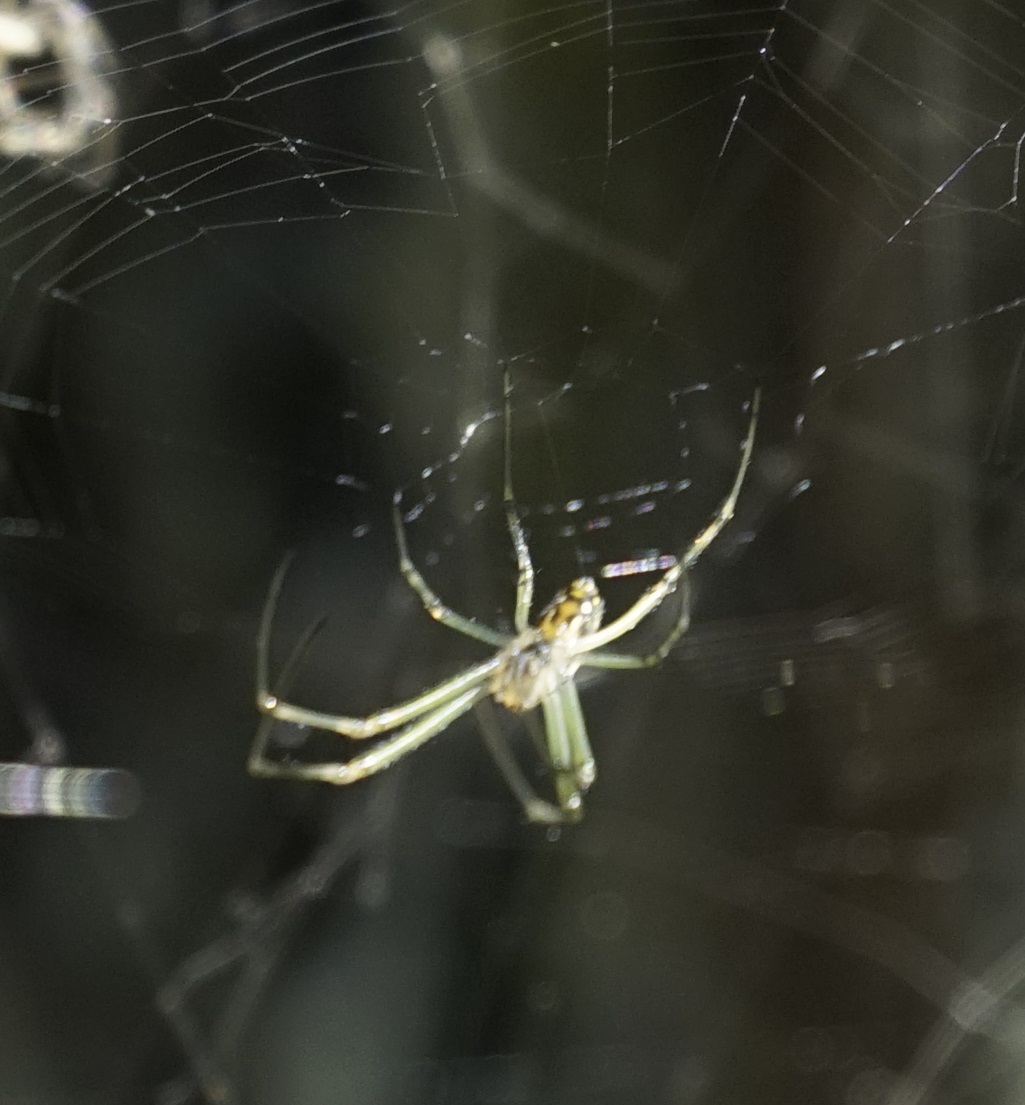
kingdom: Animalia
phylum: Arthropoda
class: Arachnida
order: Araneae
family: Tetragnathidae
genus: Leucauge
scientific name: Leucauge dromedaria
